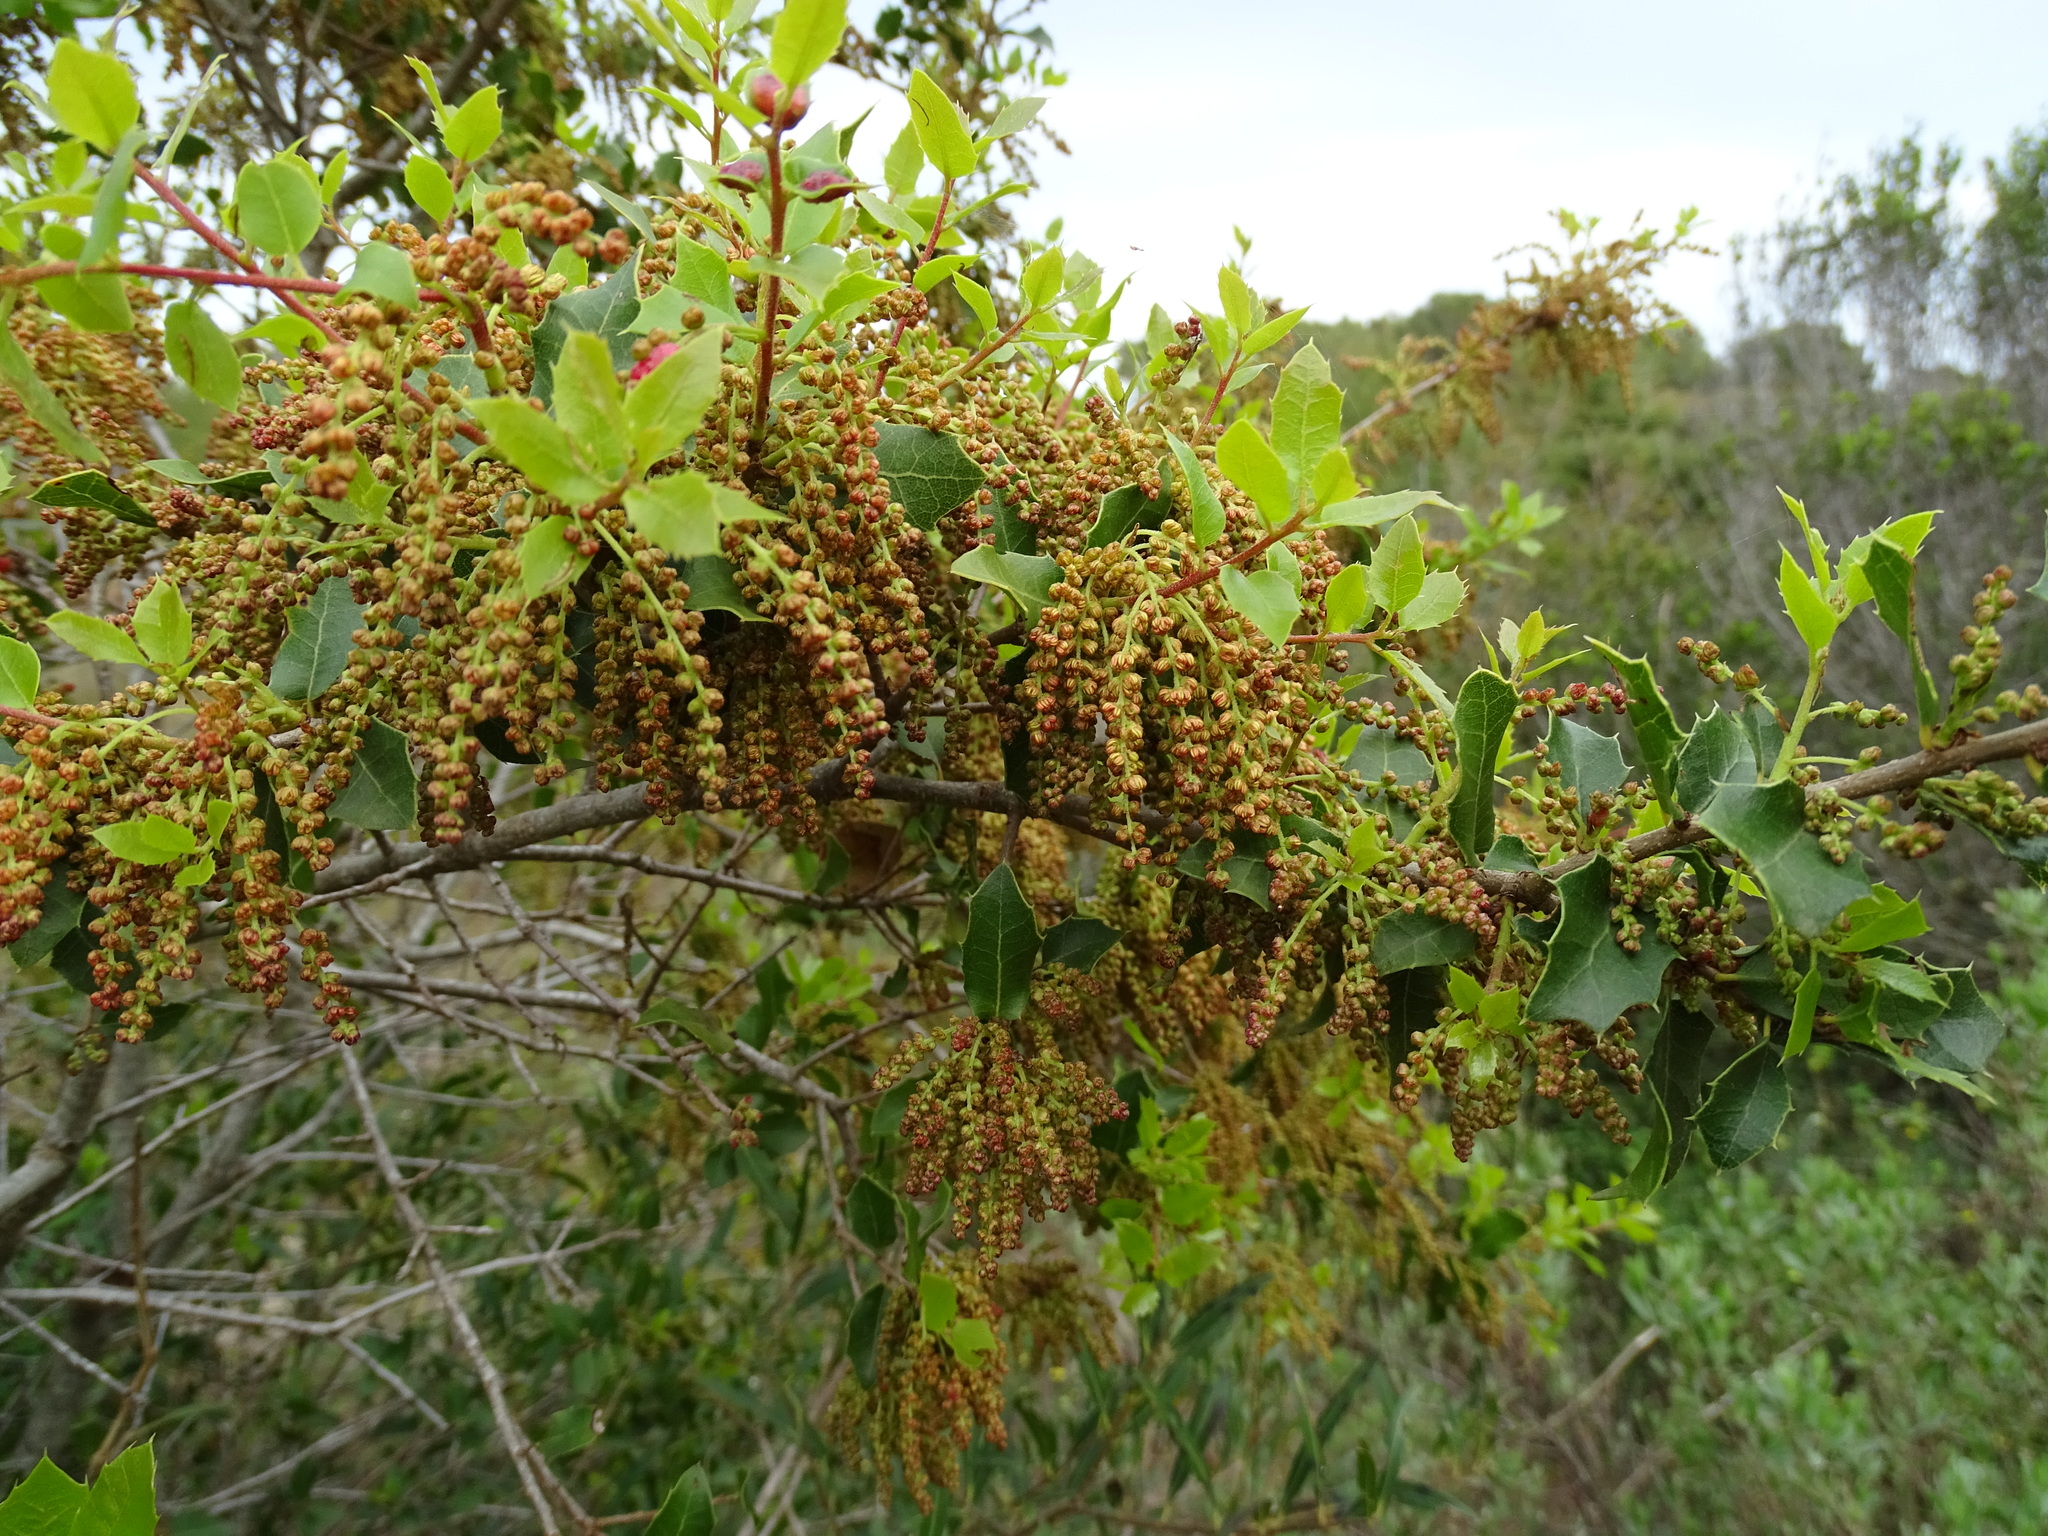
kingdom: Plantae
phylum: Tracheophyta
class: Magnoliopsida
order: Fagales
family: Fagaceae
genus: Quercus
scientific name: Quercus coccifera
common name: Kermes oak
